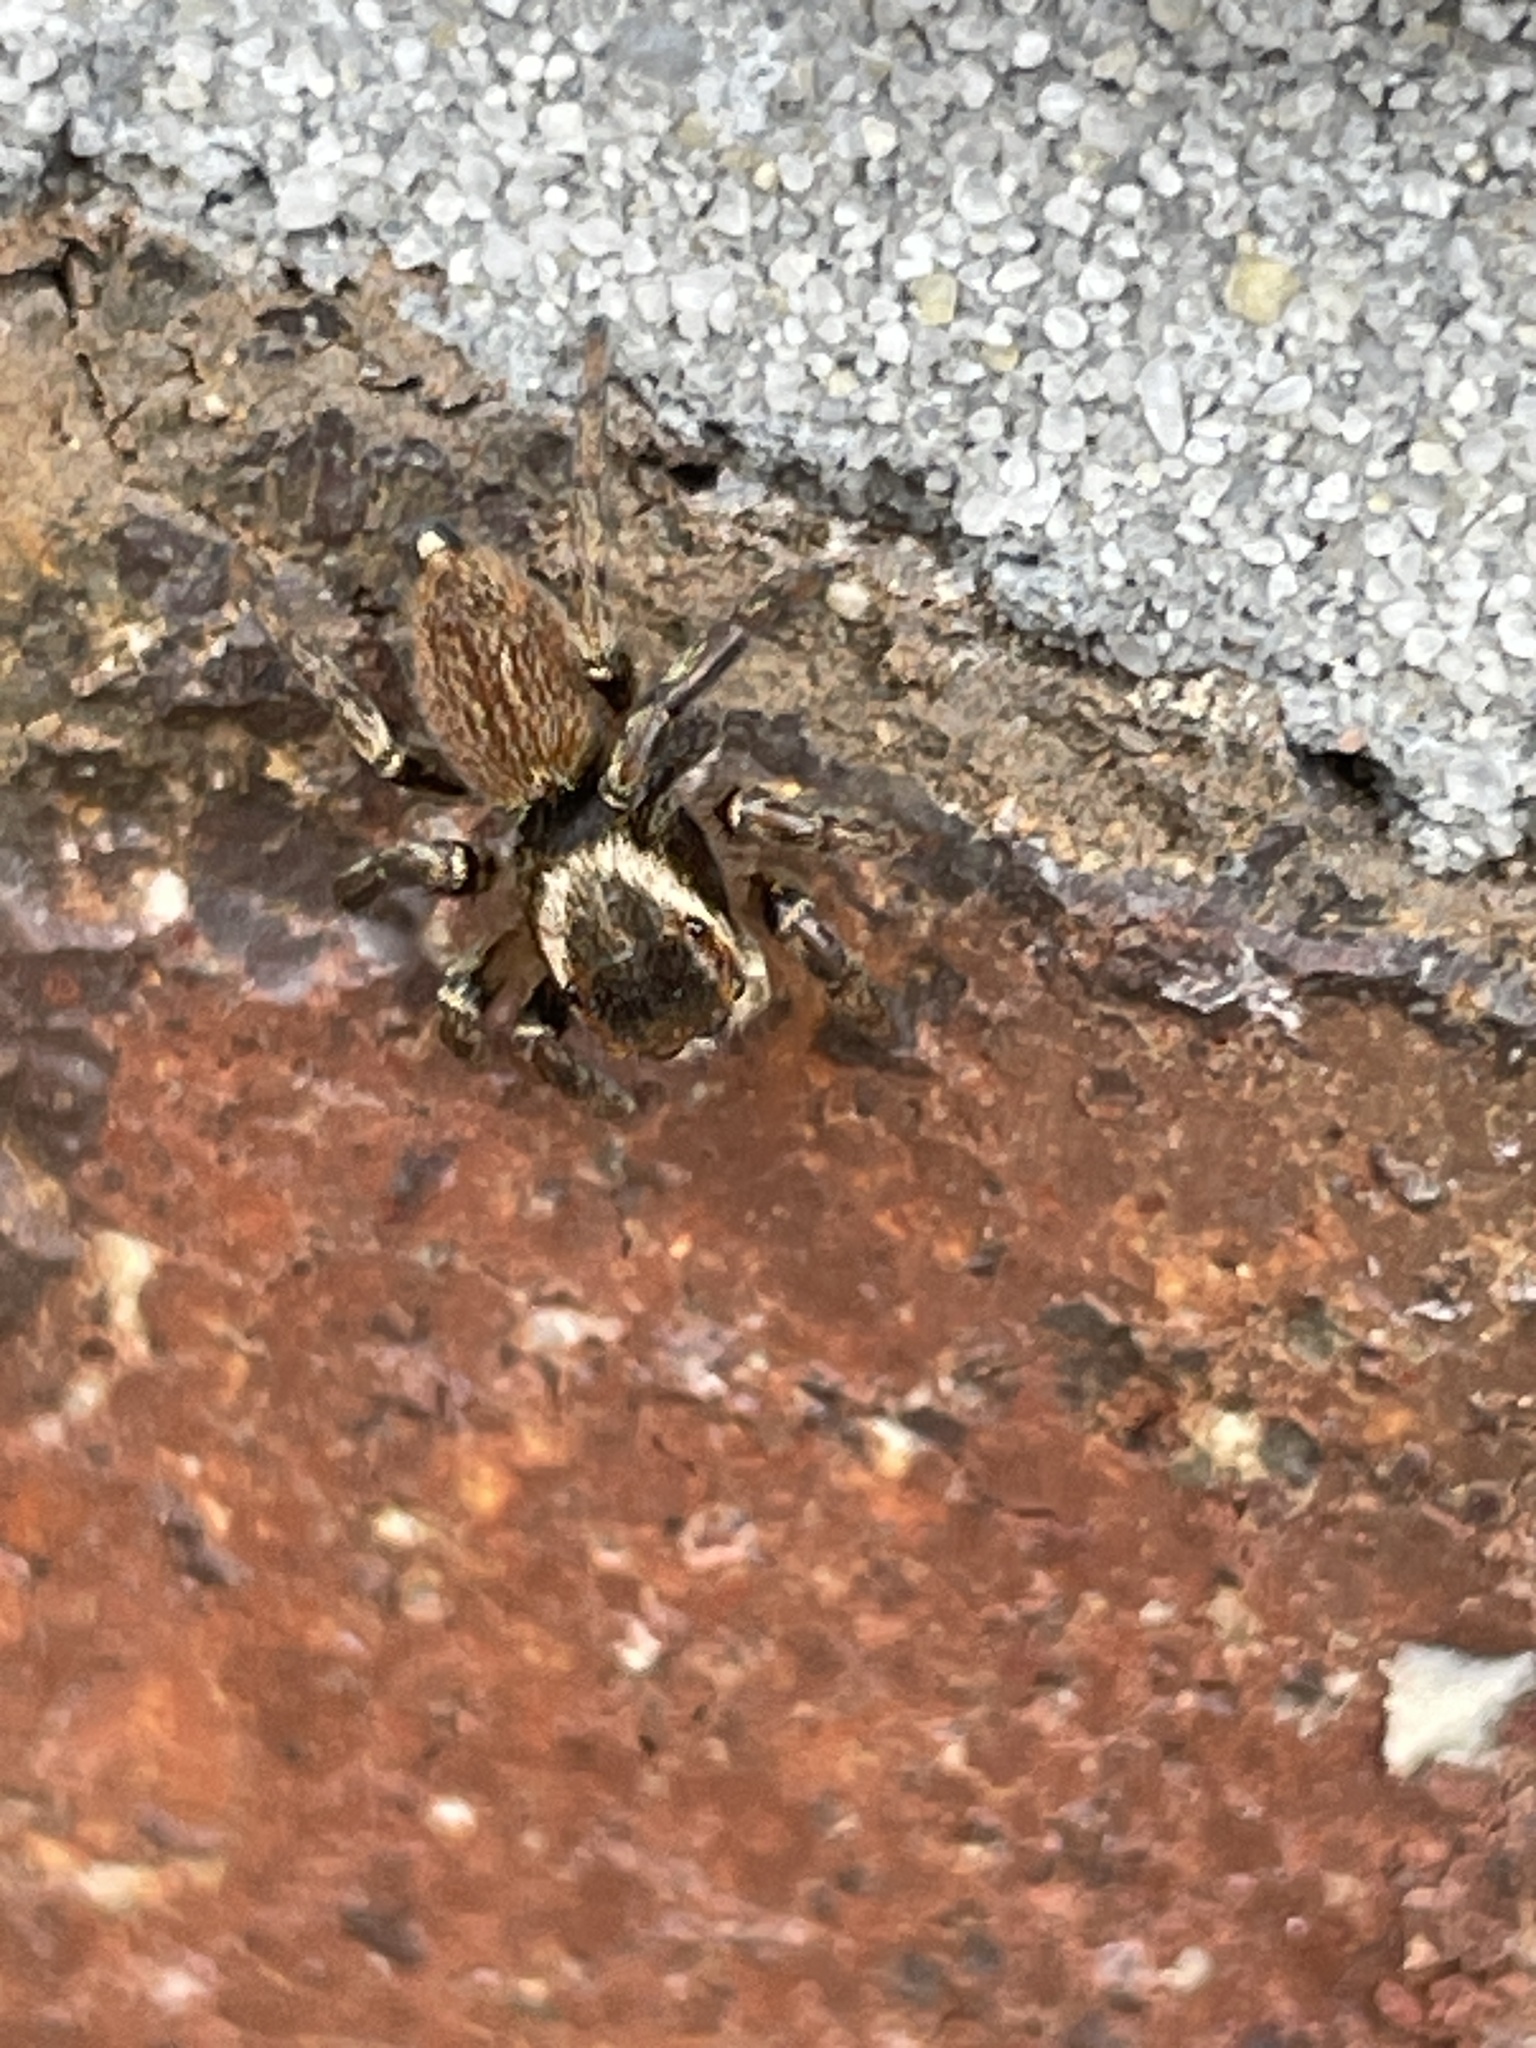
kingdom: Animalia
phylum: Arthropoda
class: Arachnida
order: Araneae
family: Salticidae
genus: Maratus
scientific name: Maratus griseus
